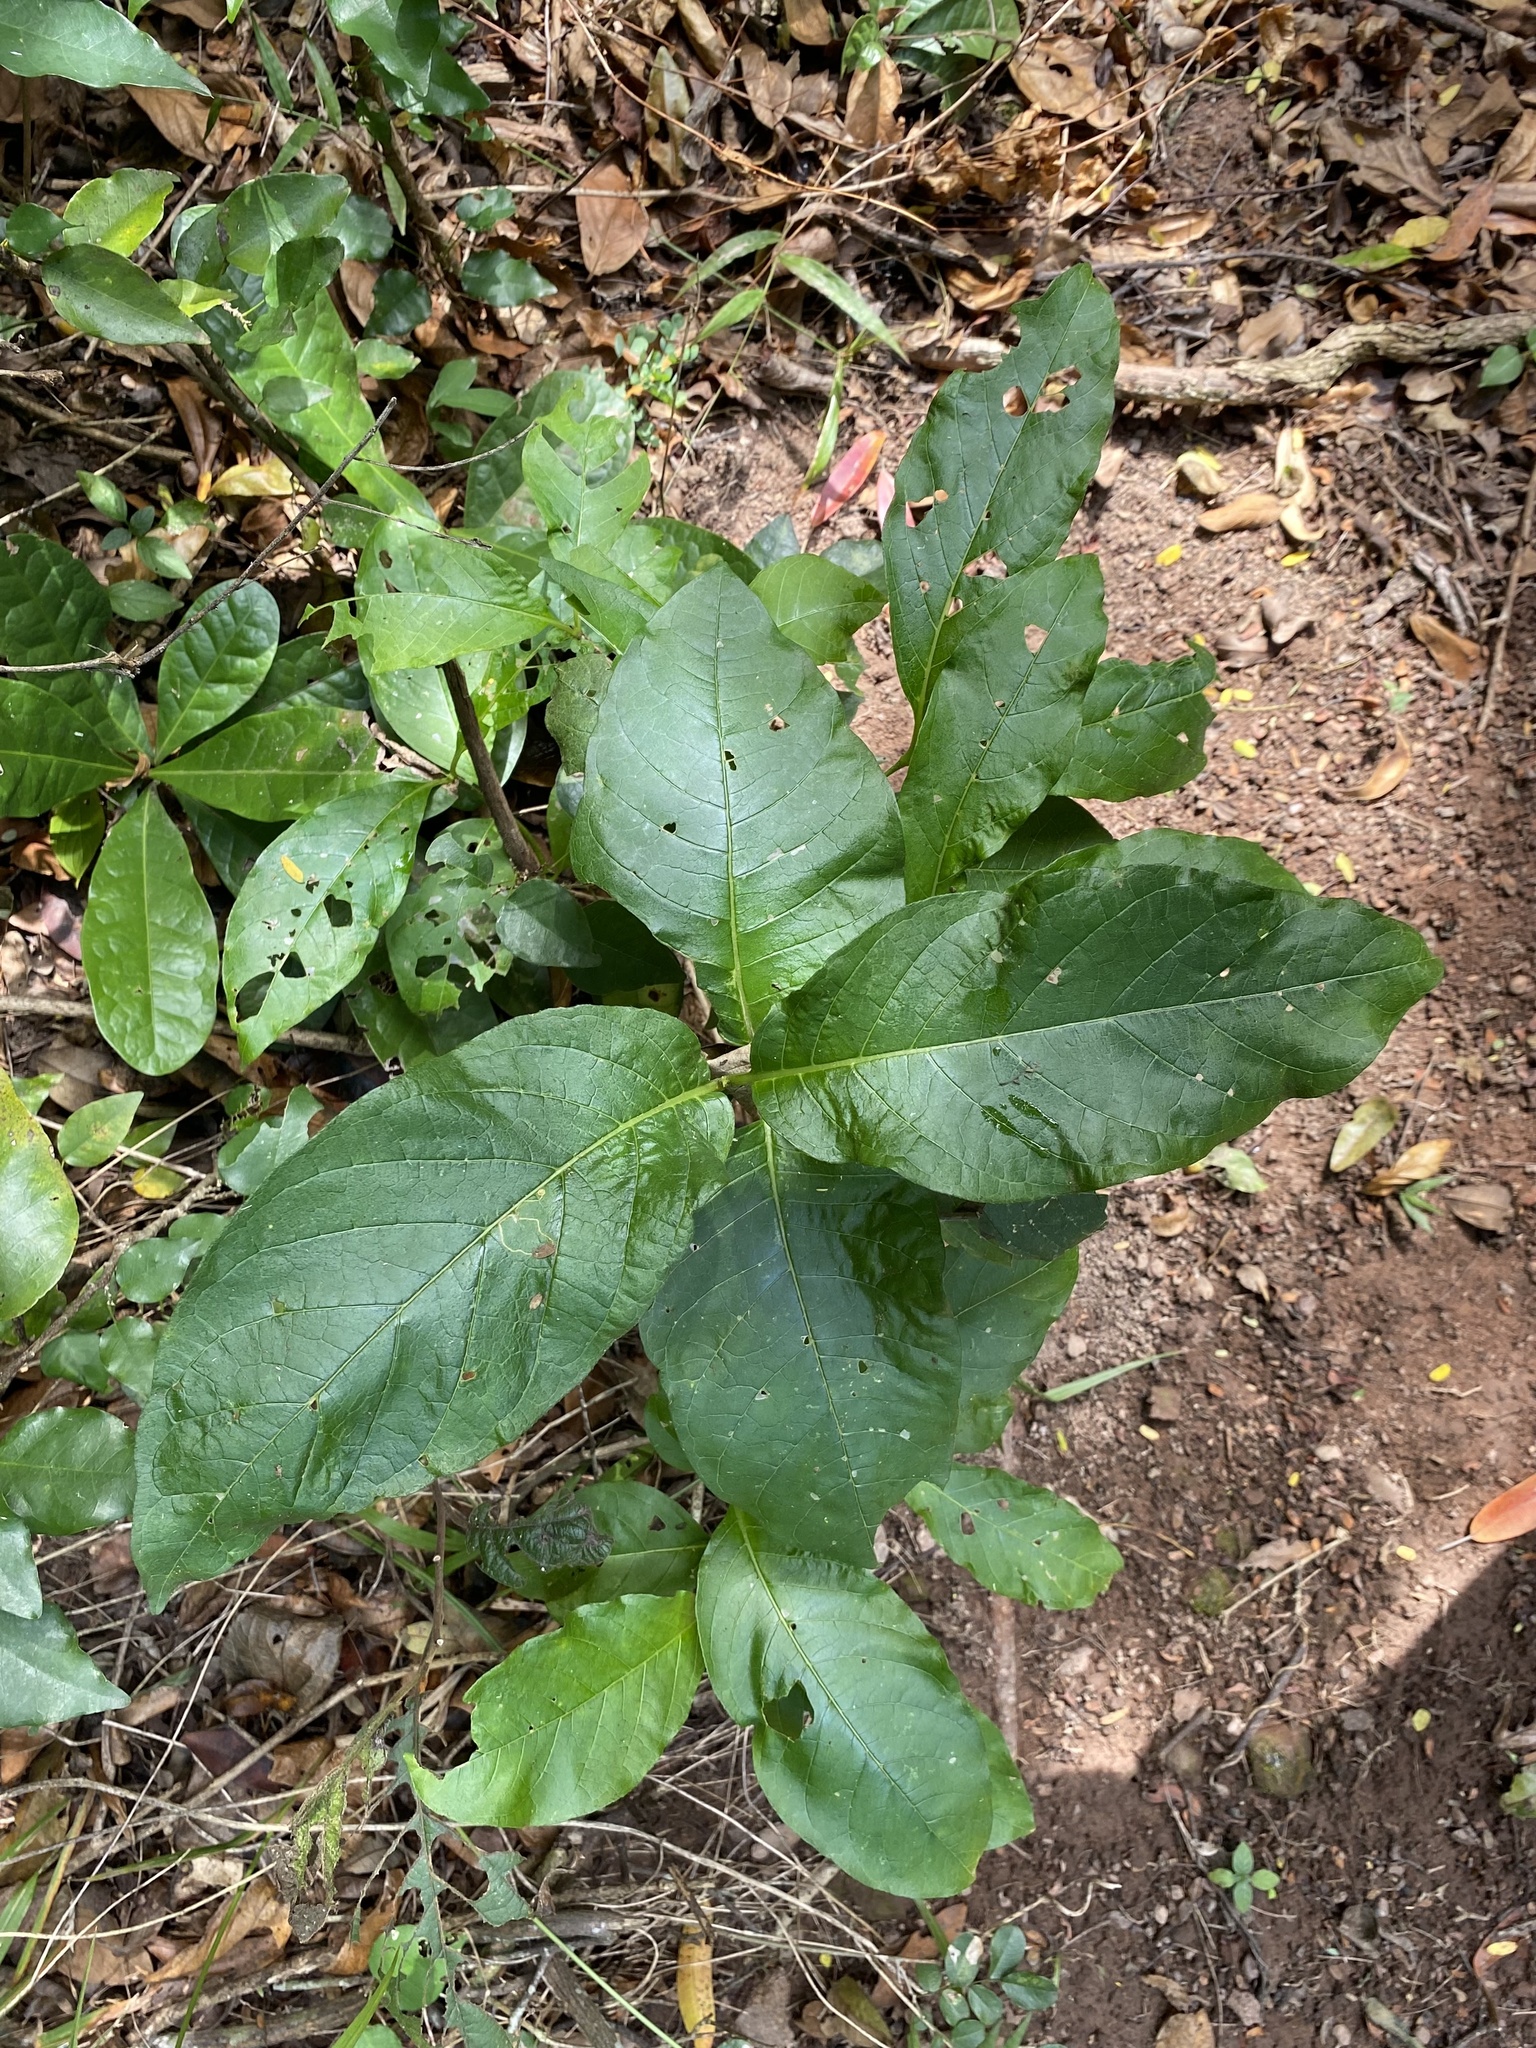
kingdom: Plantae
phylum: Tracheophyta
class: Magnoliopsida
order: Gentianales
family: Rubiaceae
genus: Burchellia
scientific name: Burchellia bubalina
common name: Wild pomegranate
